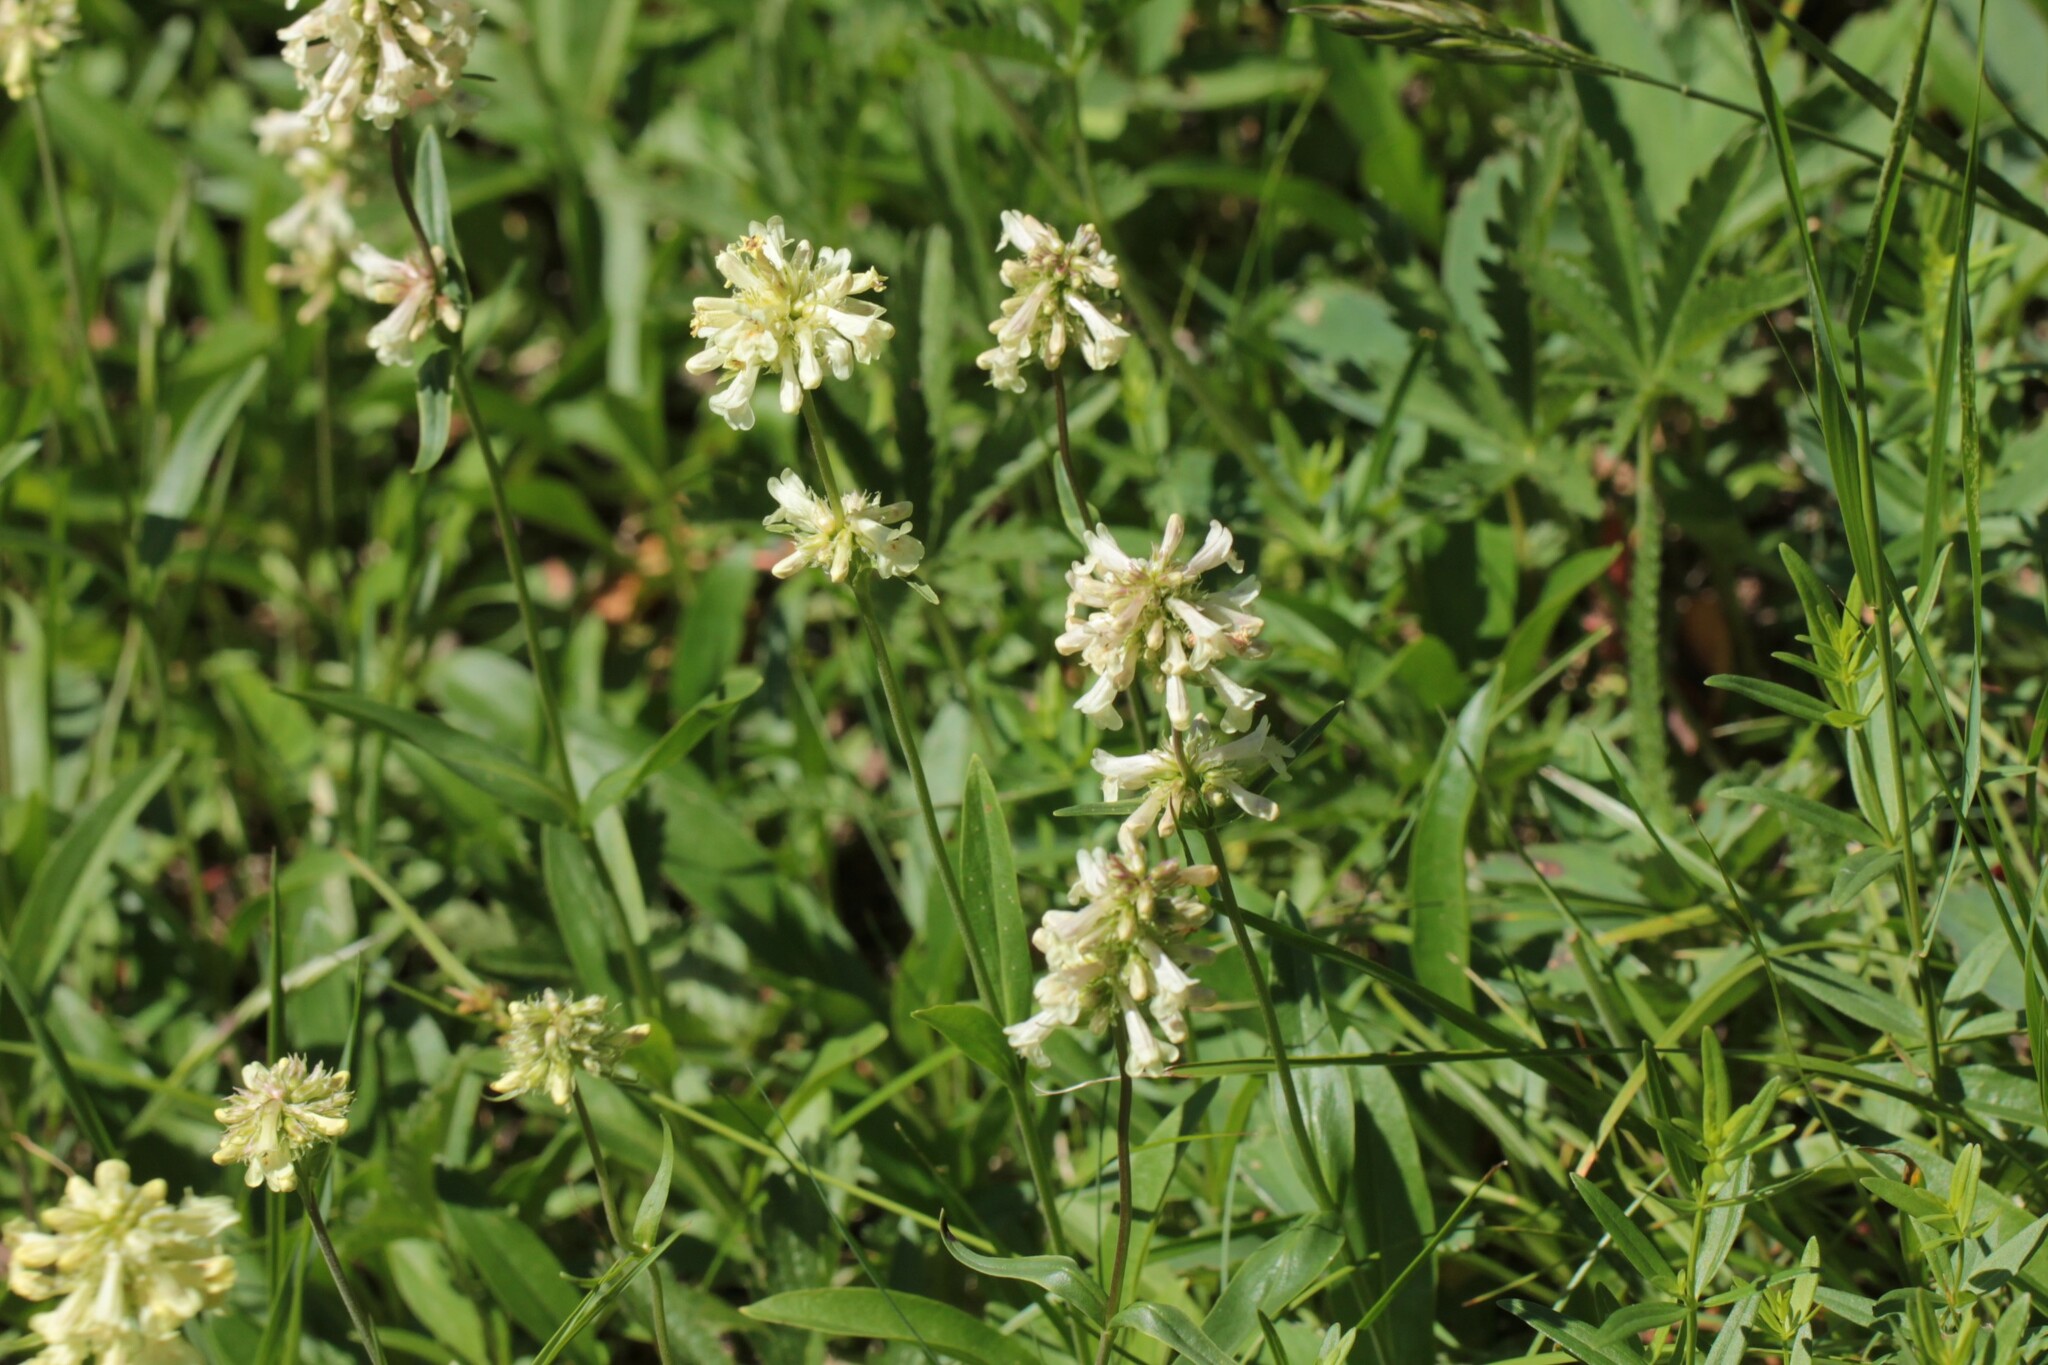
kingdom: Plantae
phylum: Tracheophyta
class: Magnoliopsida
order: Lamiales
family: Plantaginaceae
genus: Penstemon
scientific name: Penstemon confertus
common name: Lesser yellow beardtongue
